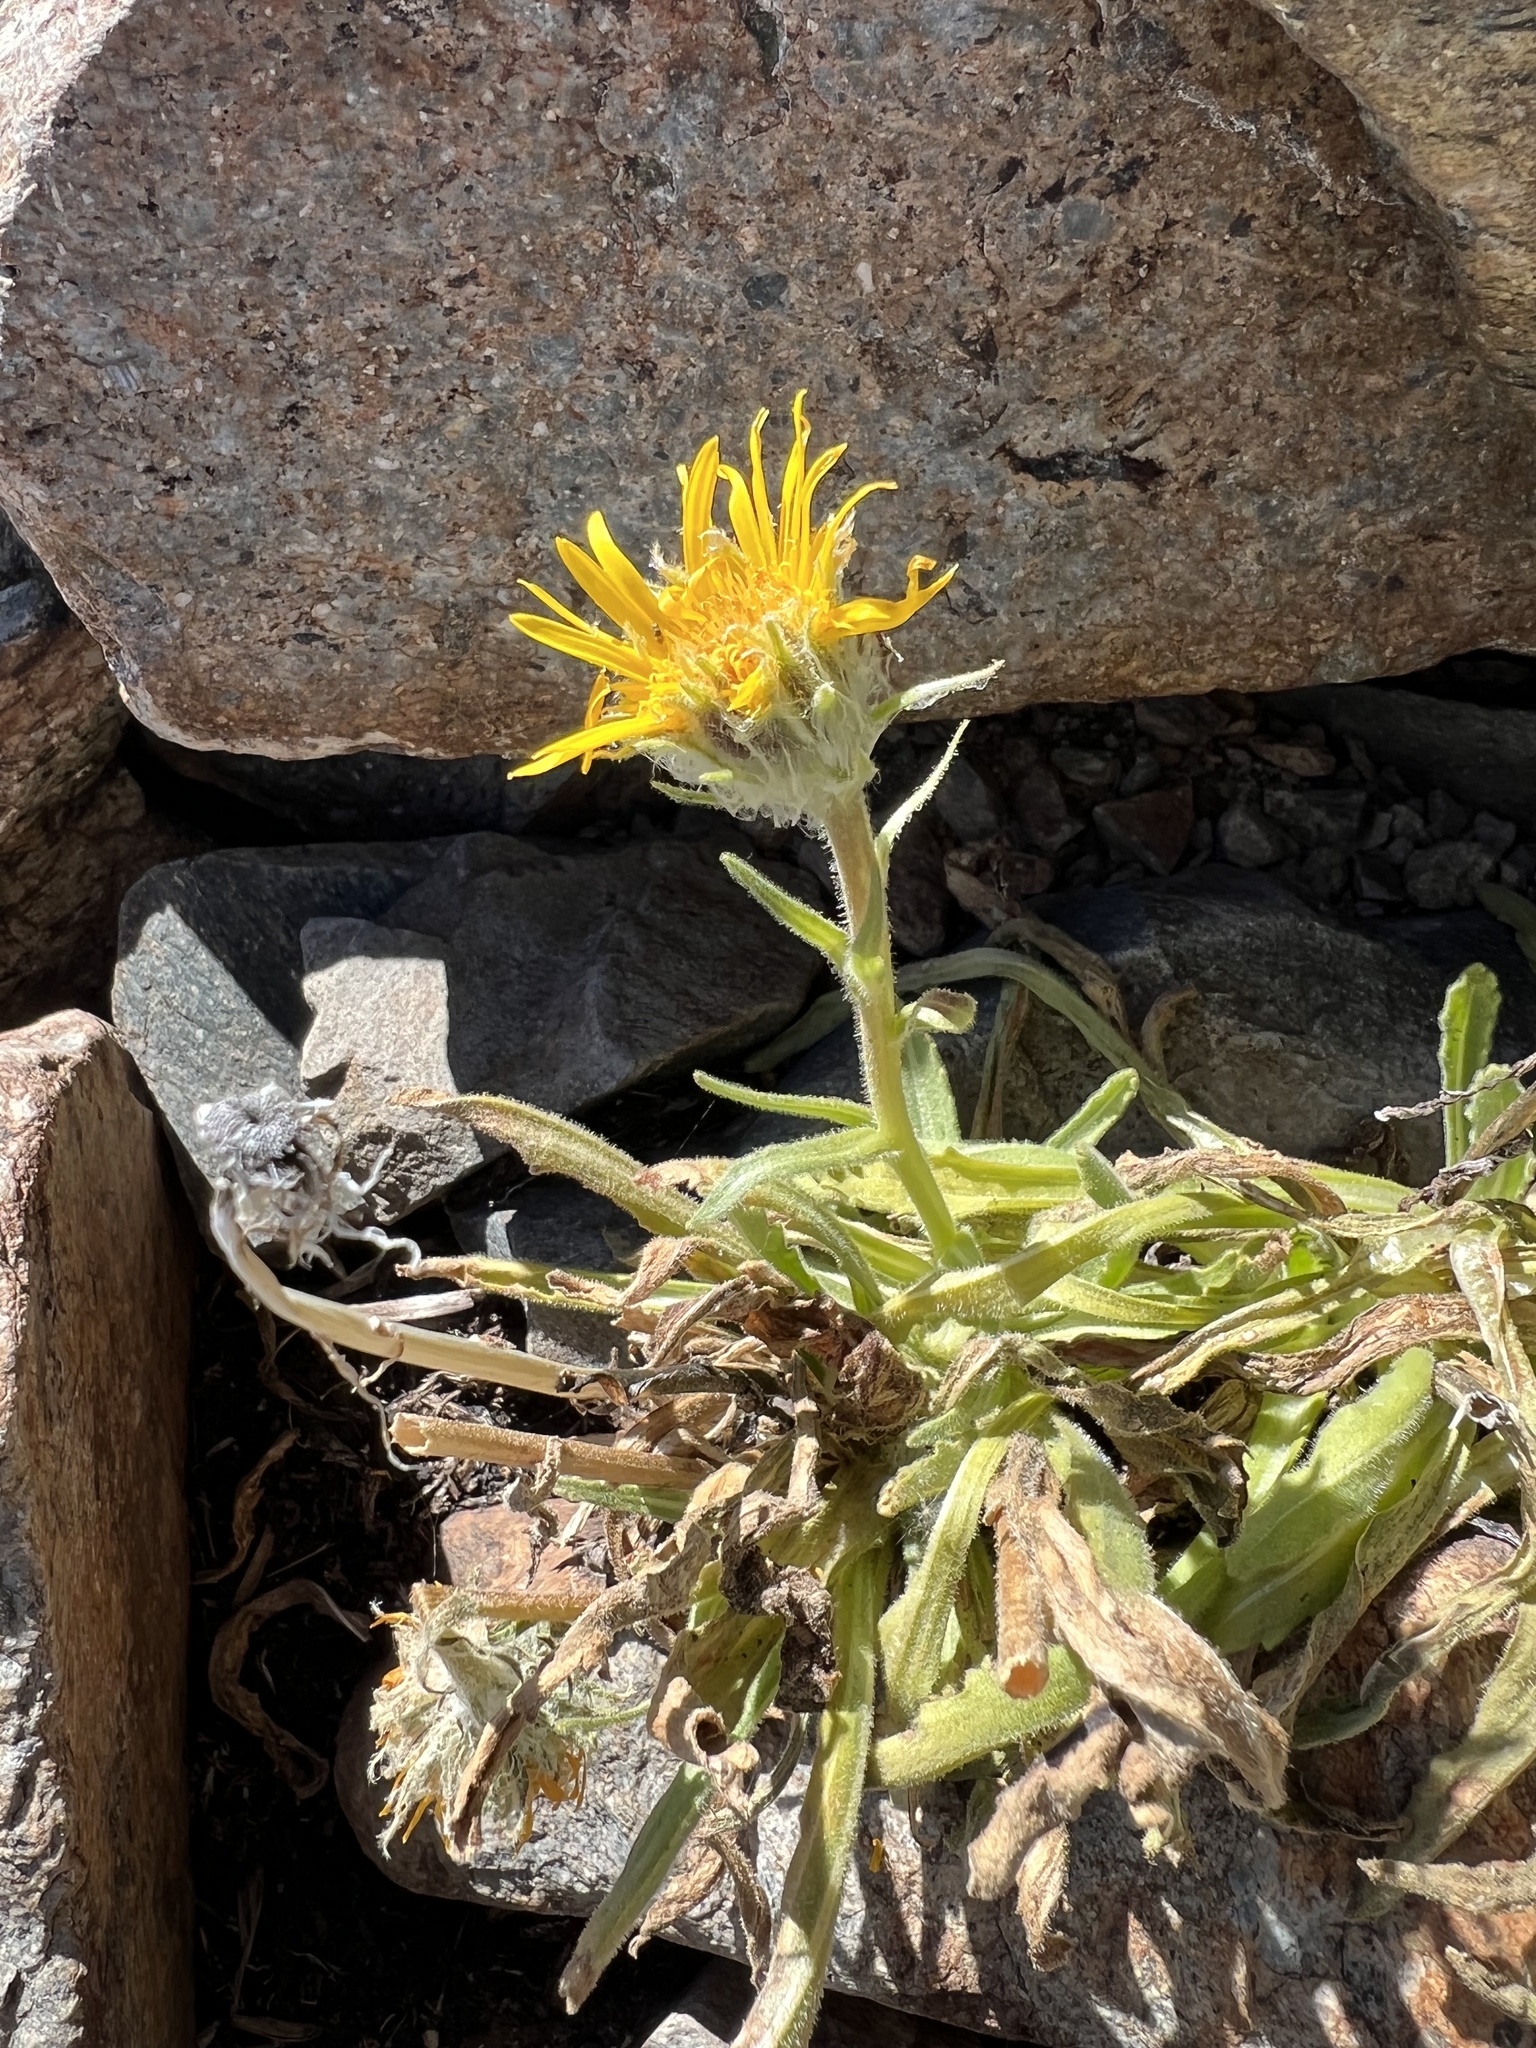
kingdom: Plantae
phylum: Tracheophyta
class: Magnoliopsida
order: Asterales
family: Asteraceae
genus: Hulsea
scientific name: Hulsea algida
